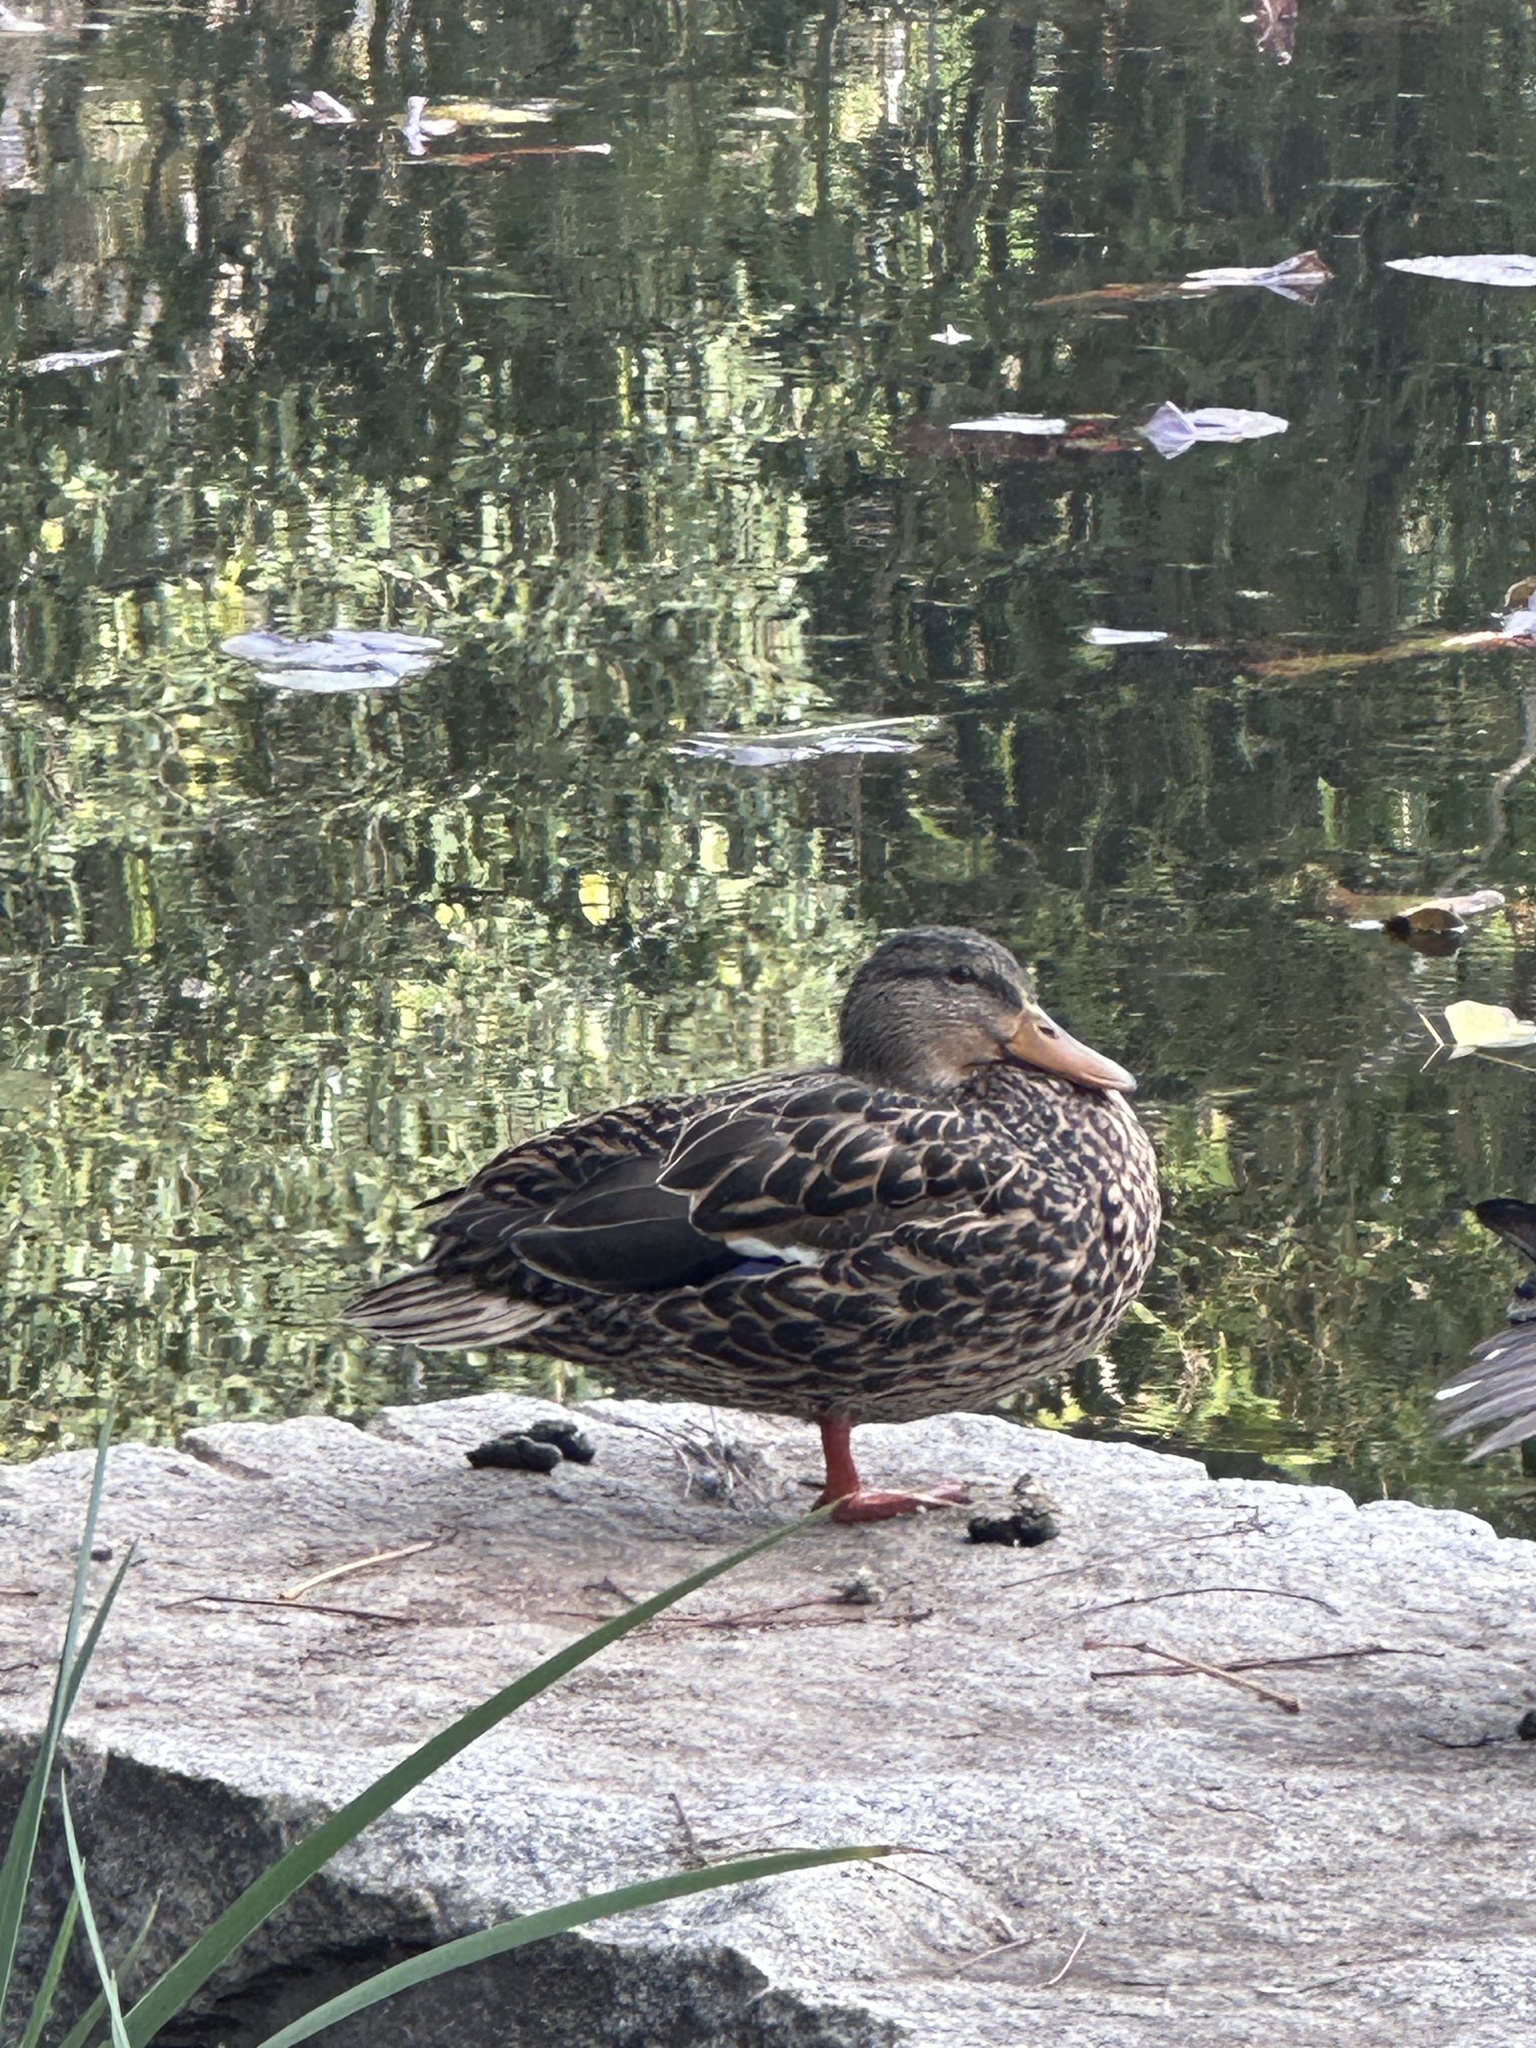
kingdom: Animalia
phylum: Chordata
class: Aves
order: Anseriformes
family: Anatidae
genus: Anas
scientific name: Anas platyrhynchos
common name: Mallard
